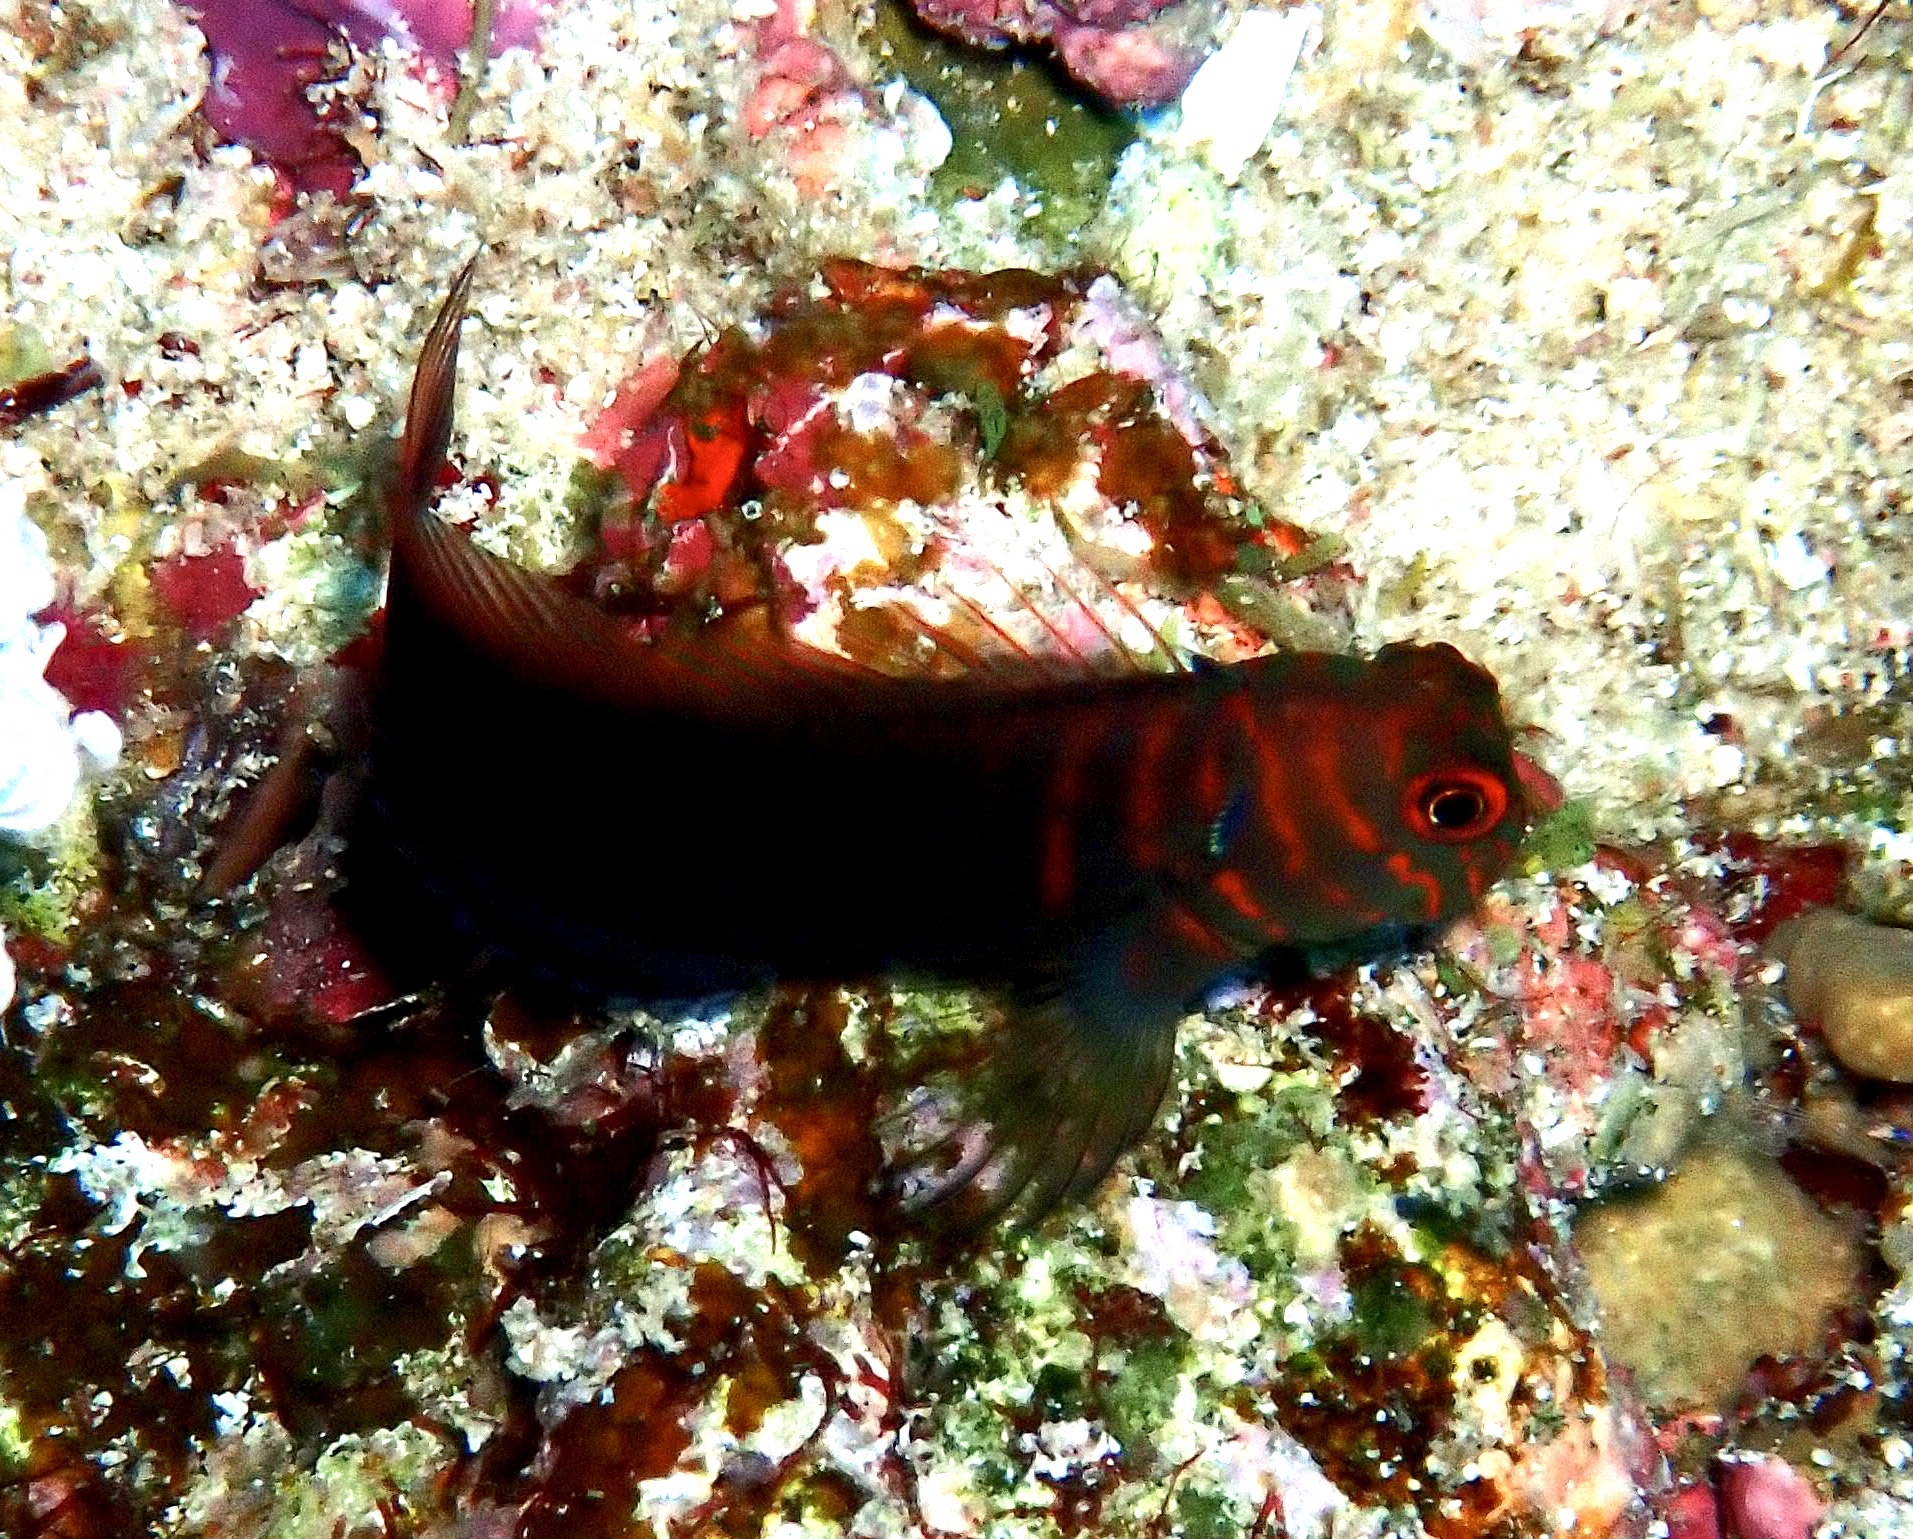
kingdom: Animalia
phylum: Chordata
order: Perciformes
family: Blenniidae
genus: Cirripectes
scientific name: Cirripectes castaneus
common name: Chestnut blenny
